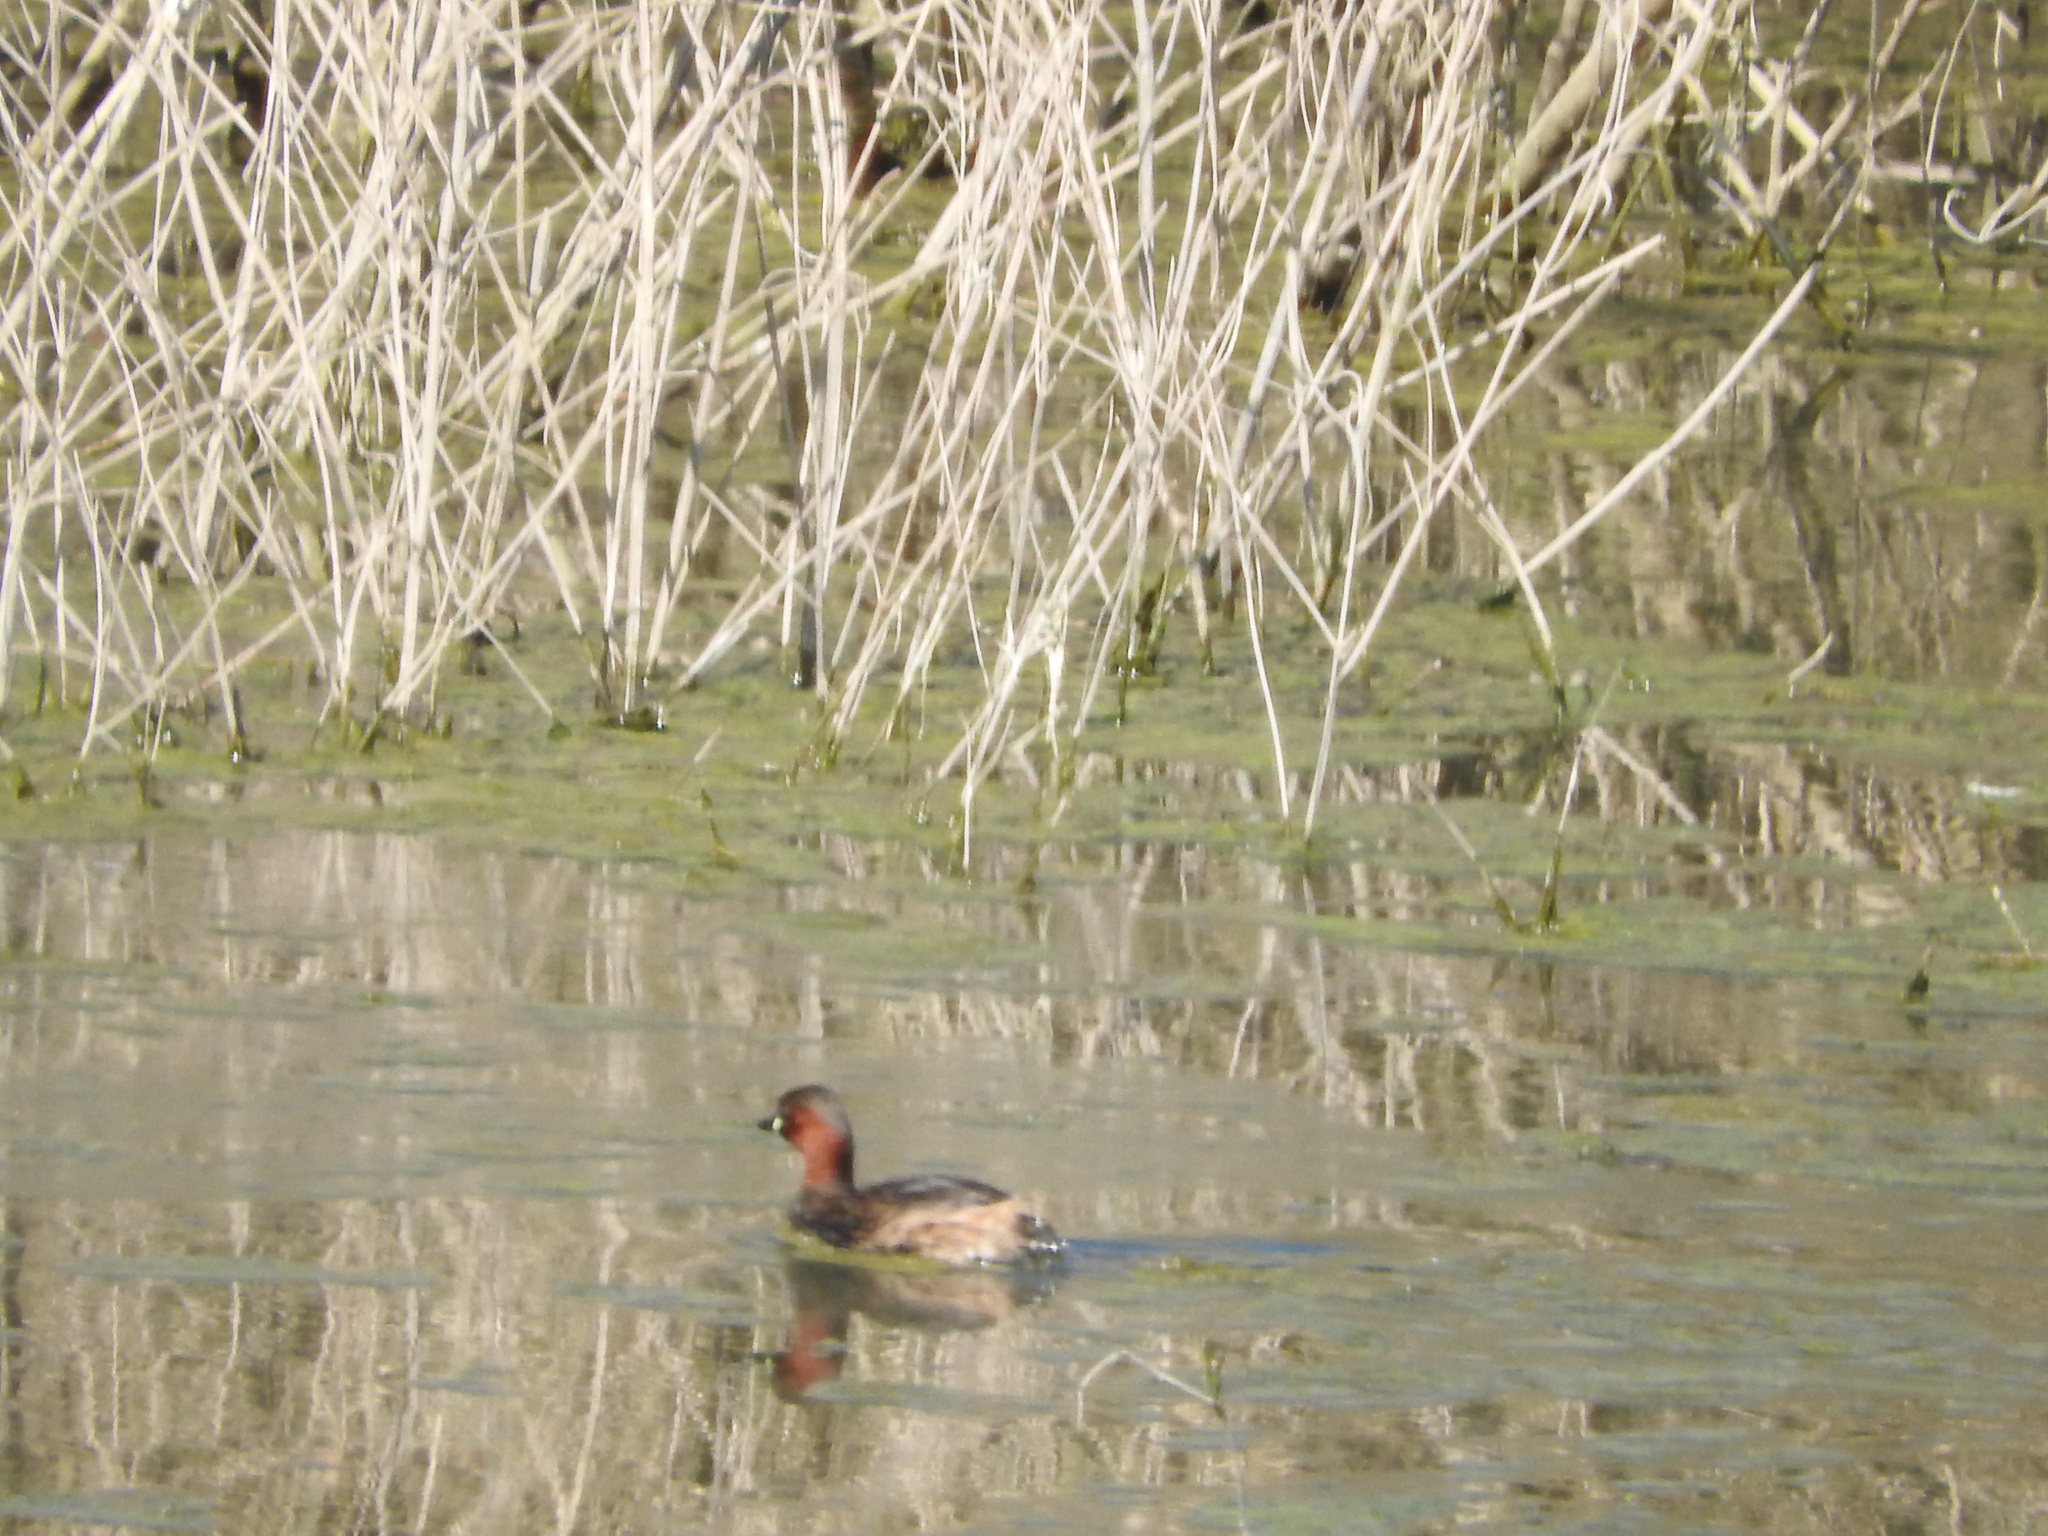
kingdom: Animalia
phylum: Chordata
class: Aves
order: Podicipediformes
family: Podicipedidae
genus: Tachybaptus
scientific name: Tachybaptus ruficollis
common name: Little grebe
